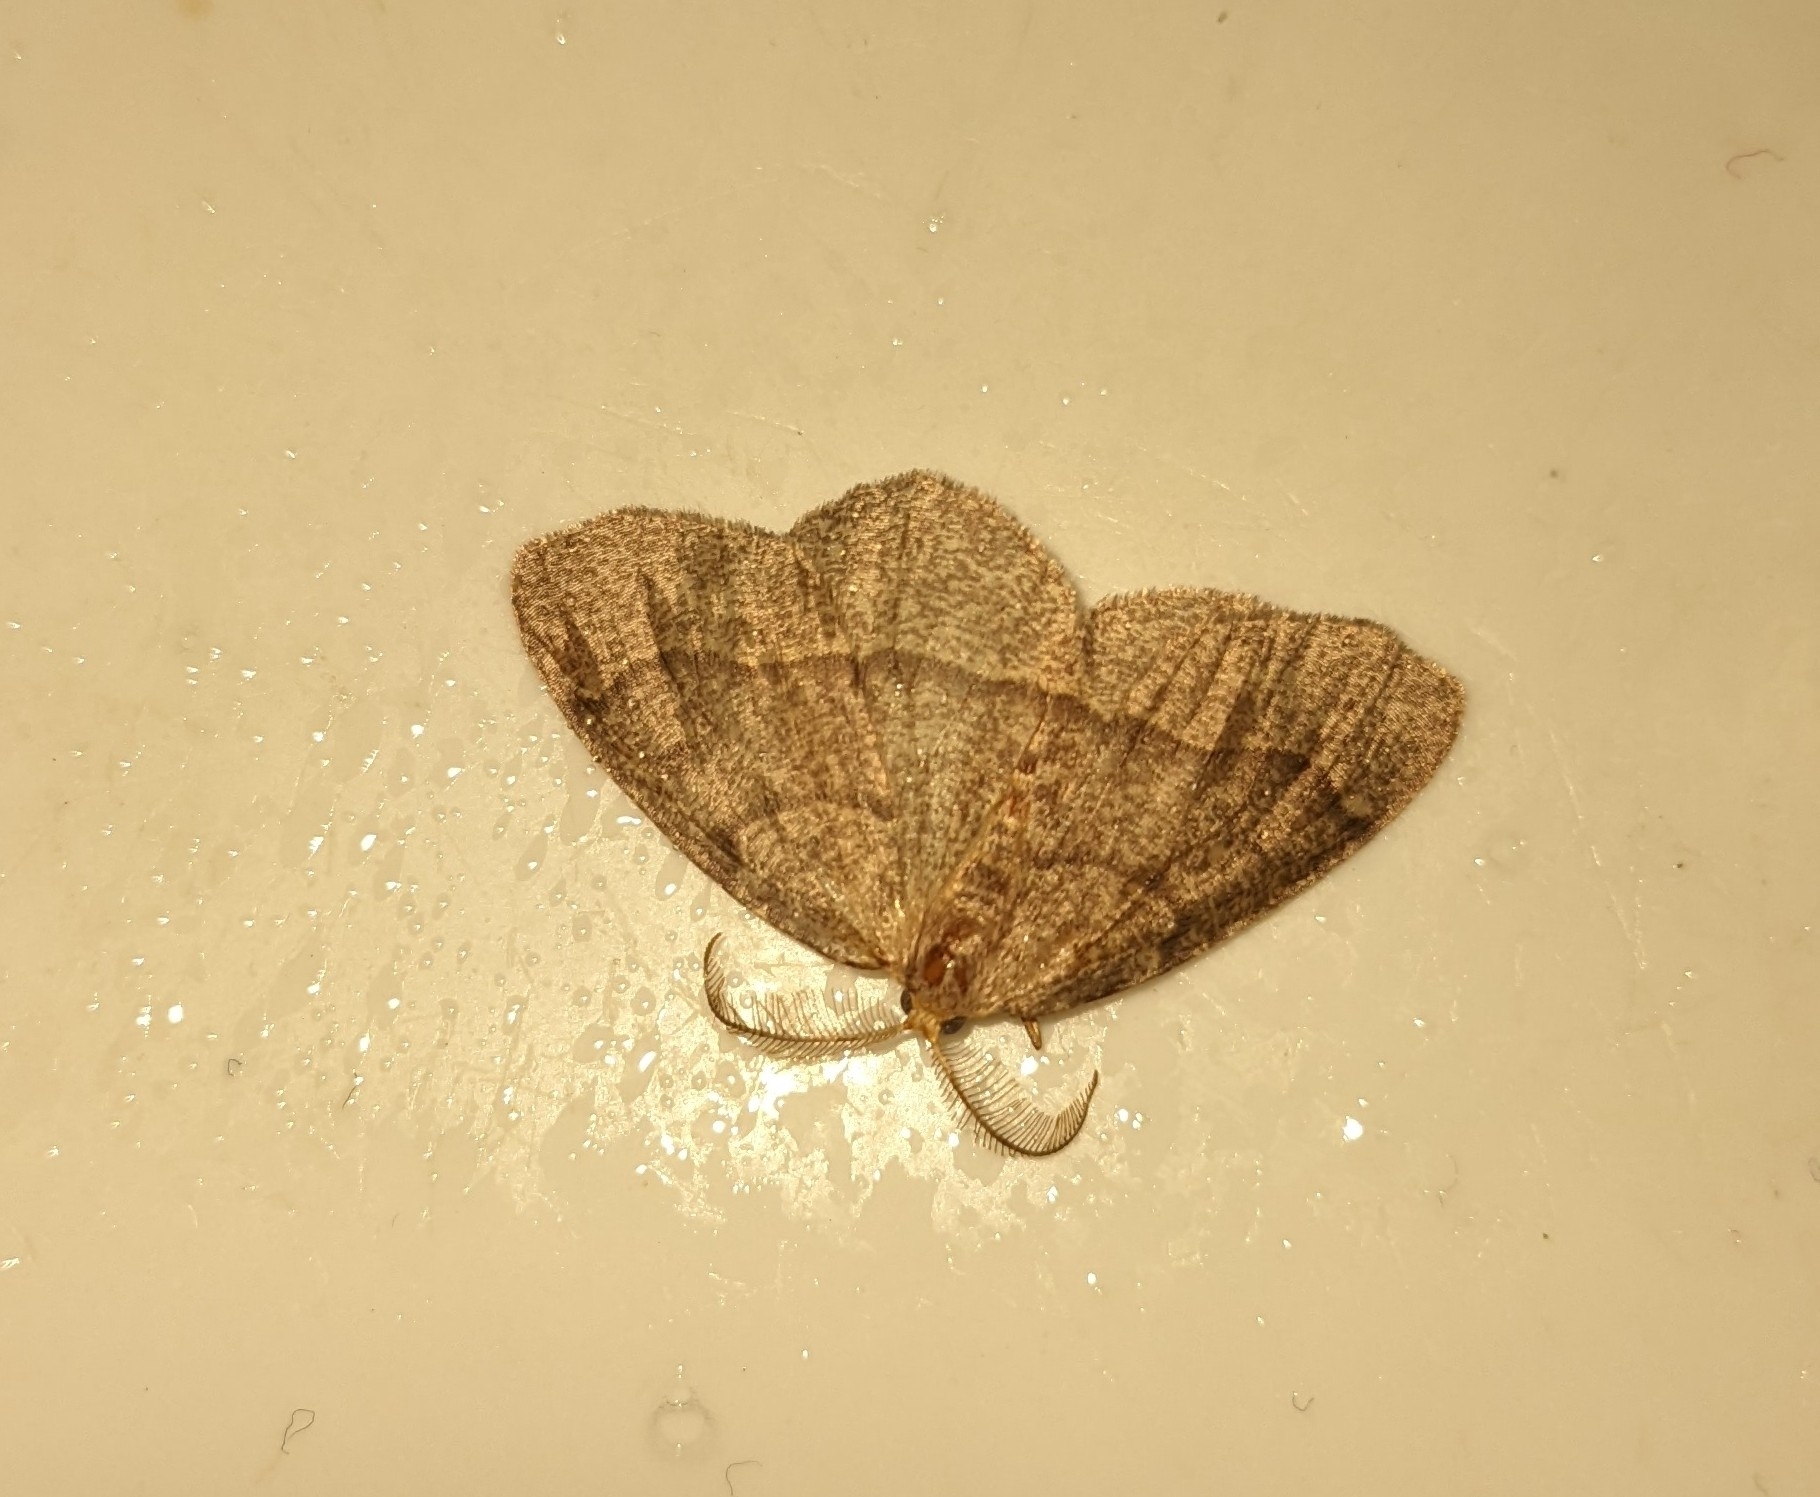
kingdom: Animalia
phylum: Arthropoda
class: Insecta
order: Lepidoptera
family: Geometridae
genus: Lambdina
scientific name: Lambdina fervidaria
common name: Curve-lined looper moth
